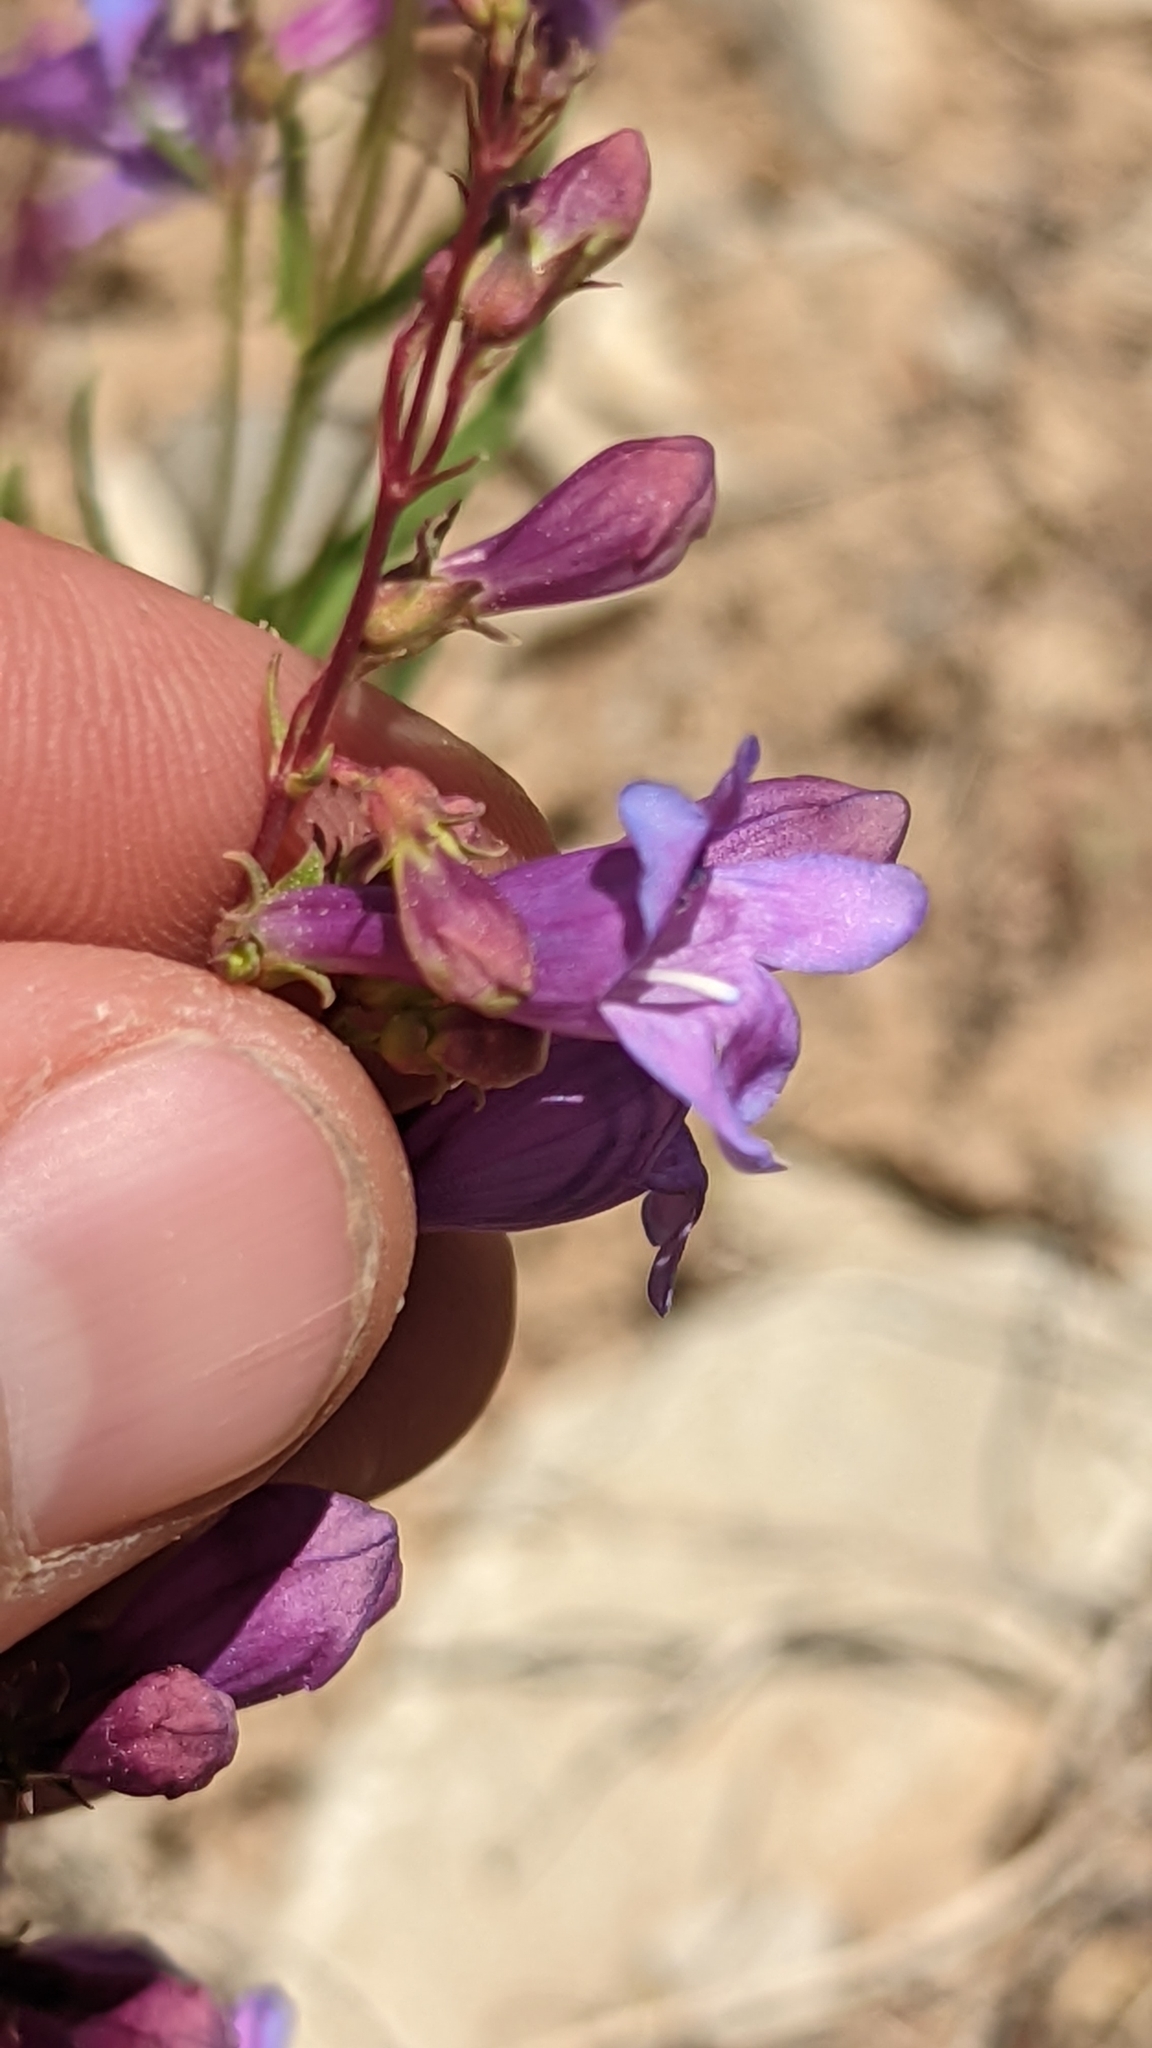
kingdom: Plantae
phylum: Tracheophyta
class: Magnoliopsida
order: Lamiales
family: Plantaginaceae
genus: Penstemon
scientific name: Penstemon leonardii
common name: Leonard's penstemon
